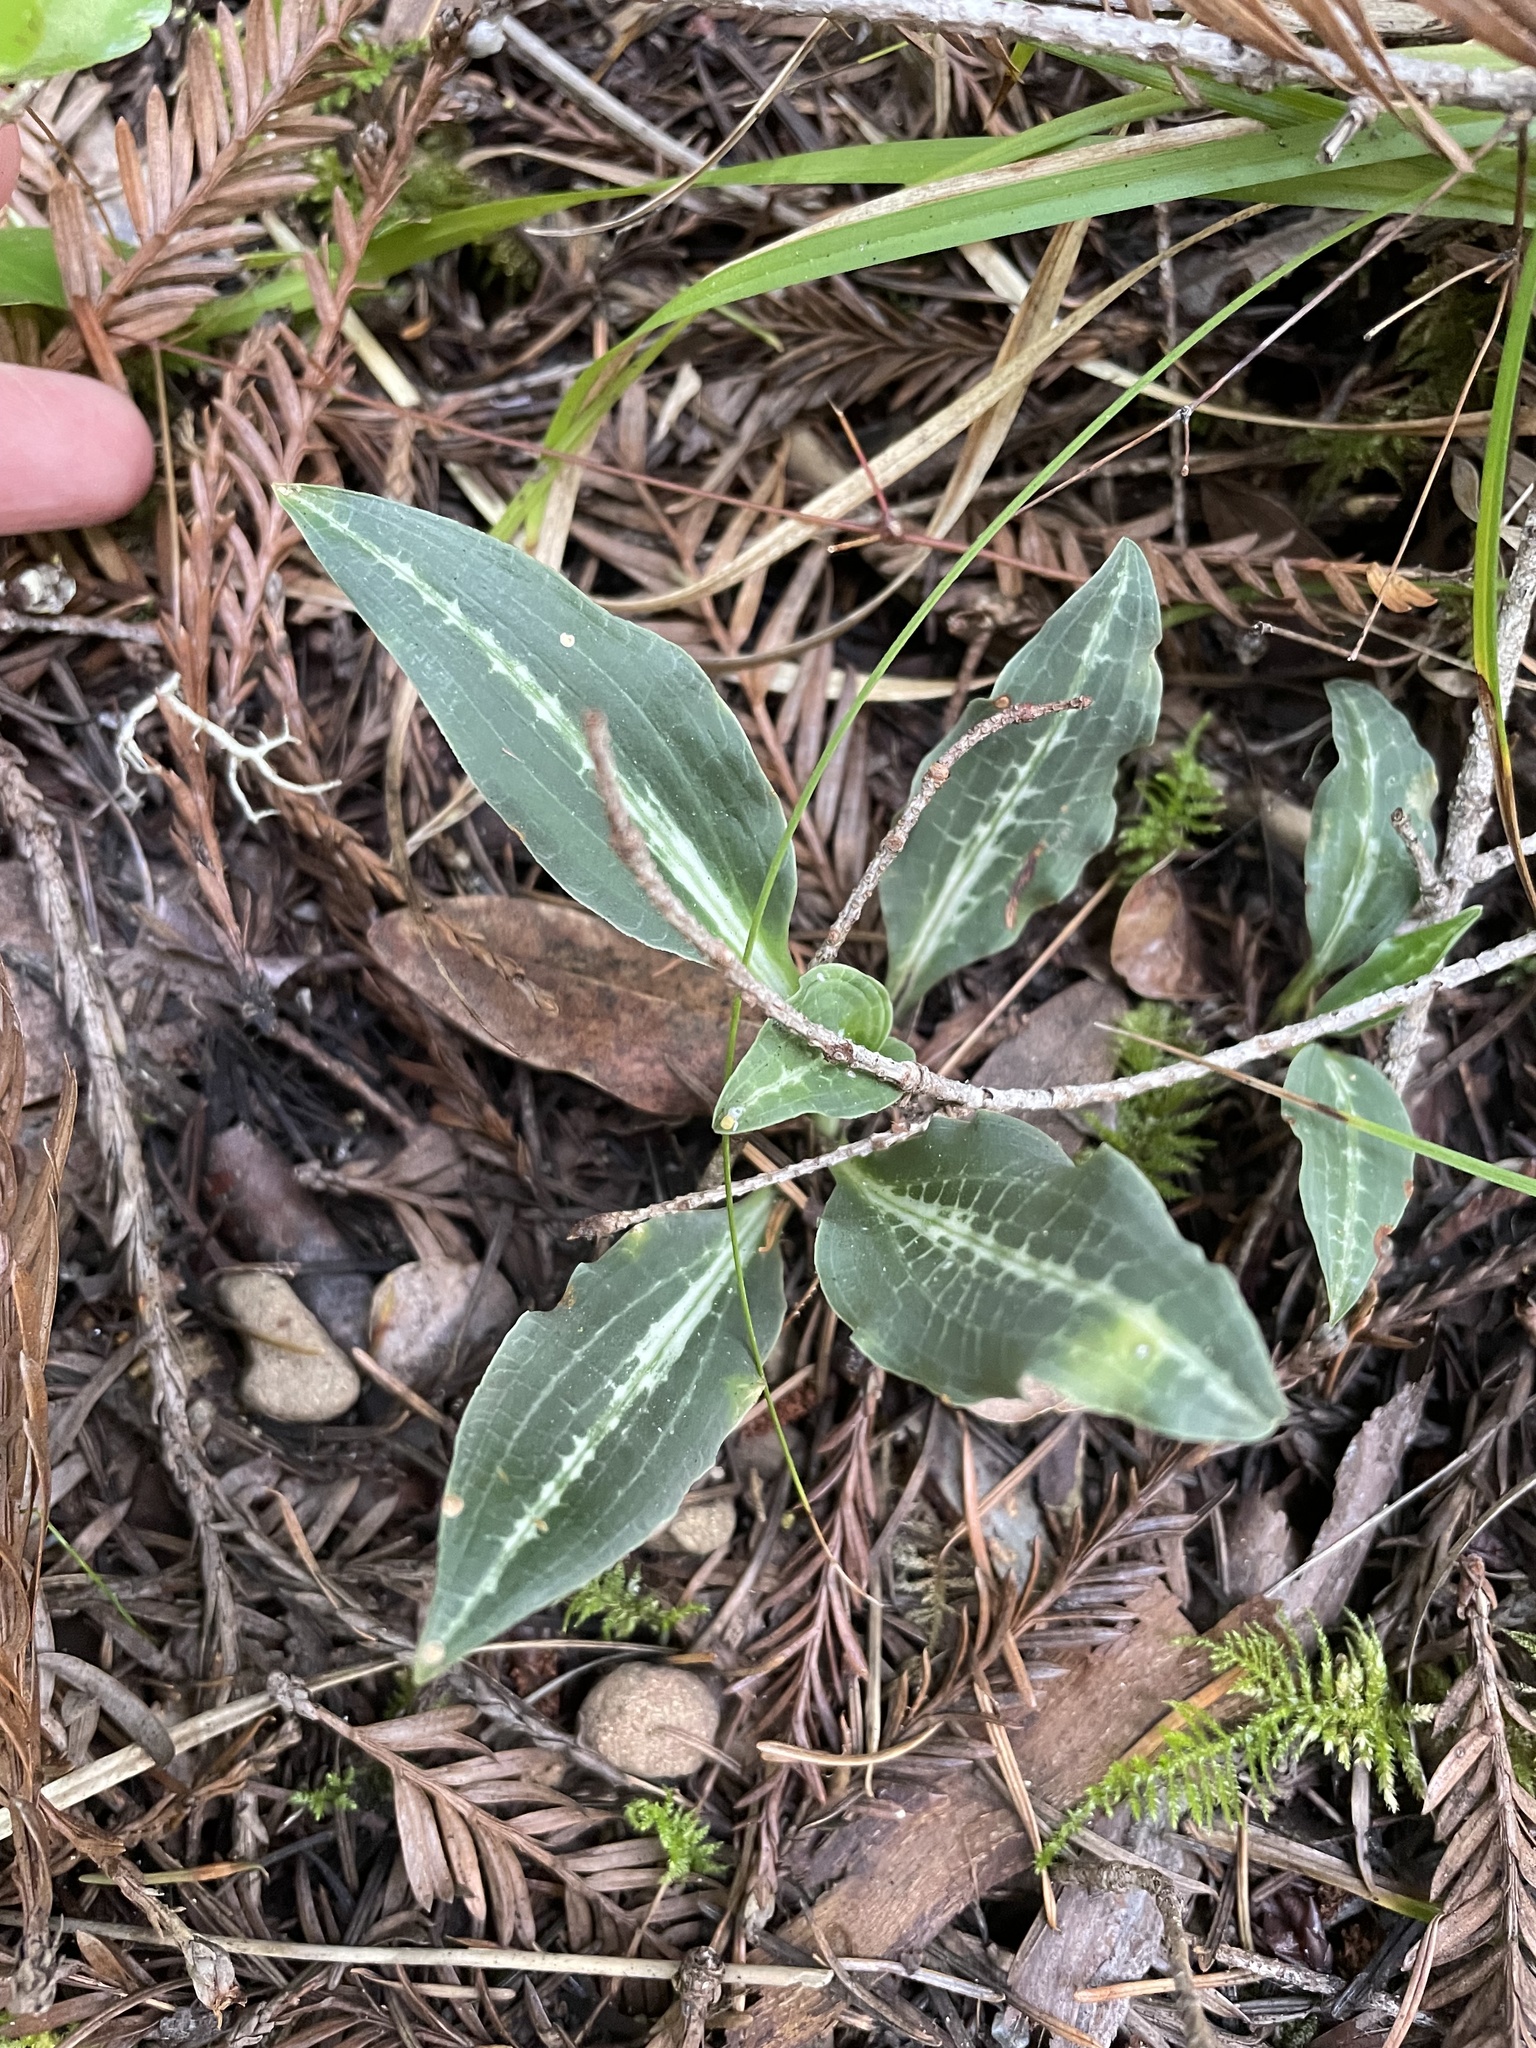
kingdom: Plantae
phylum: Tracheophyta
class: Liliopsida
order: Asparagales
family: Orchidaceae
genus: Goodyera
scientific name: Goodyera oblongifolia
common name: Giant rattlesnake-plantain
